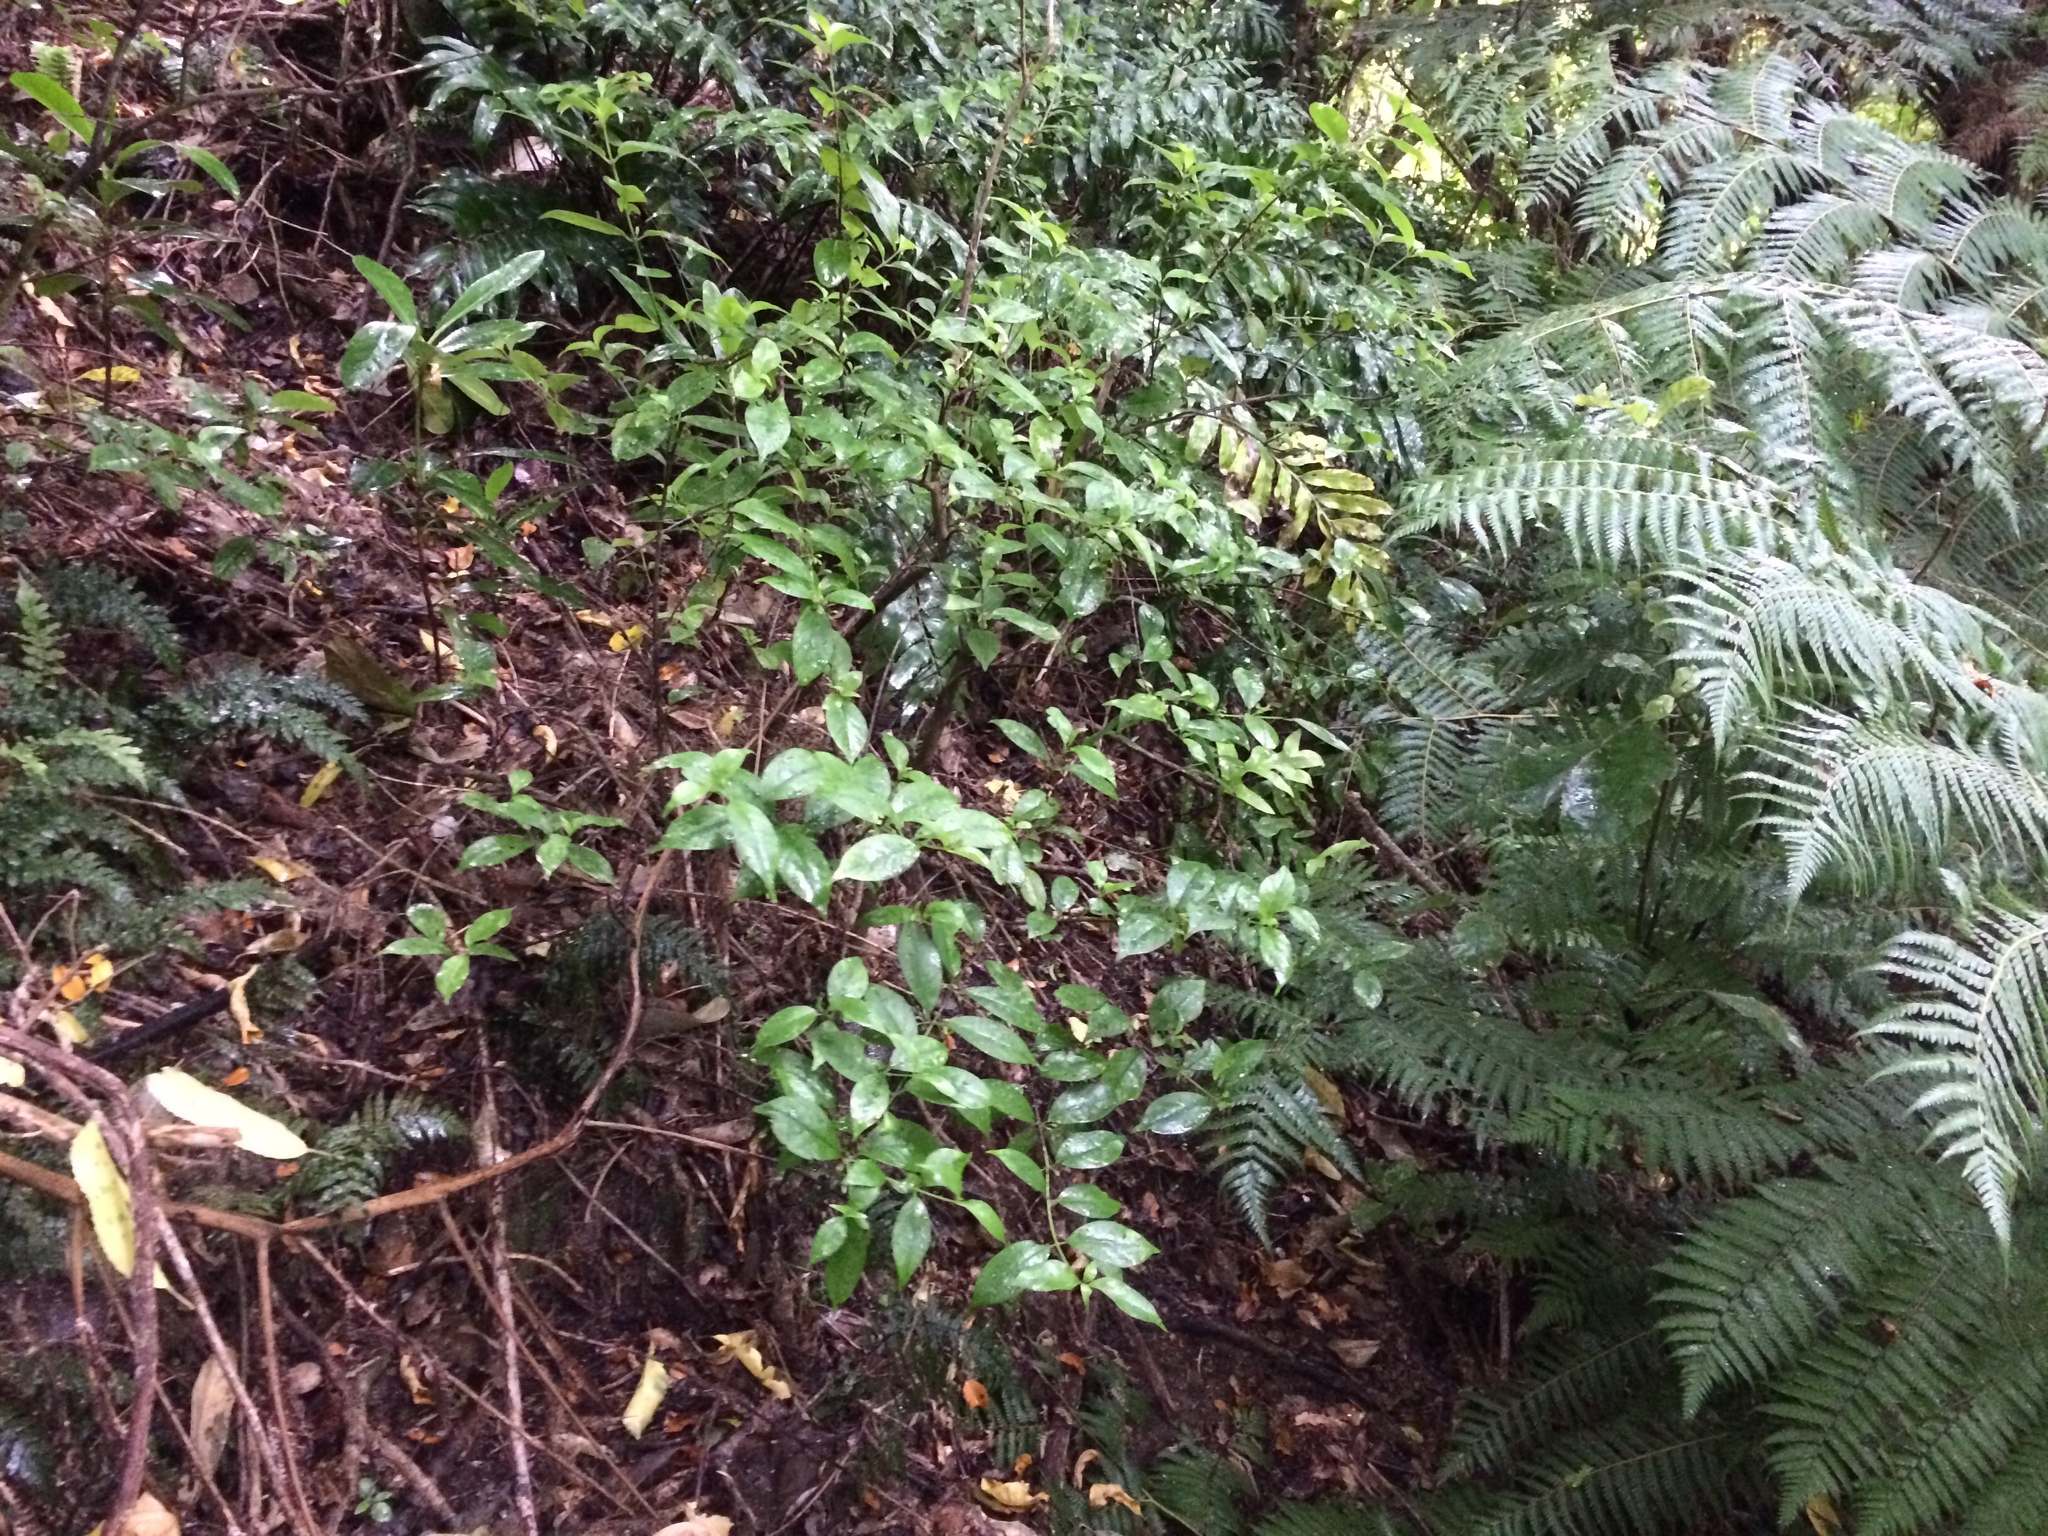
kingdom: Plantae
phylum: Tracheophyta
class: Magnoliopsida
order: Gentianales
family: Loganiaceae
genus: Geniostoma
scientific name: Geniostoma ligustrifolium
